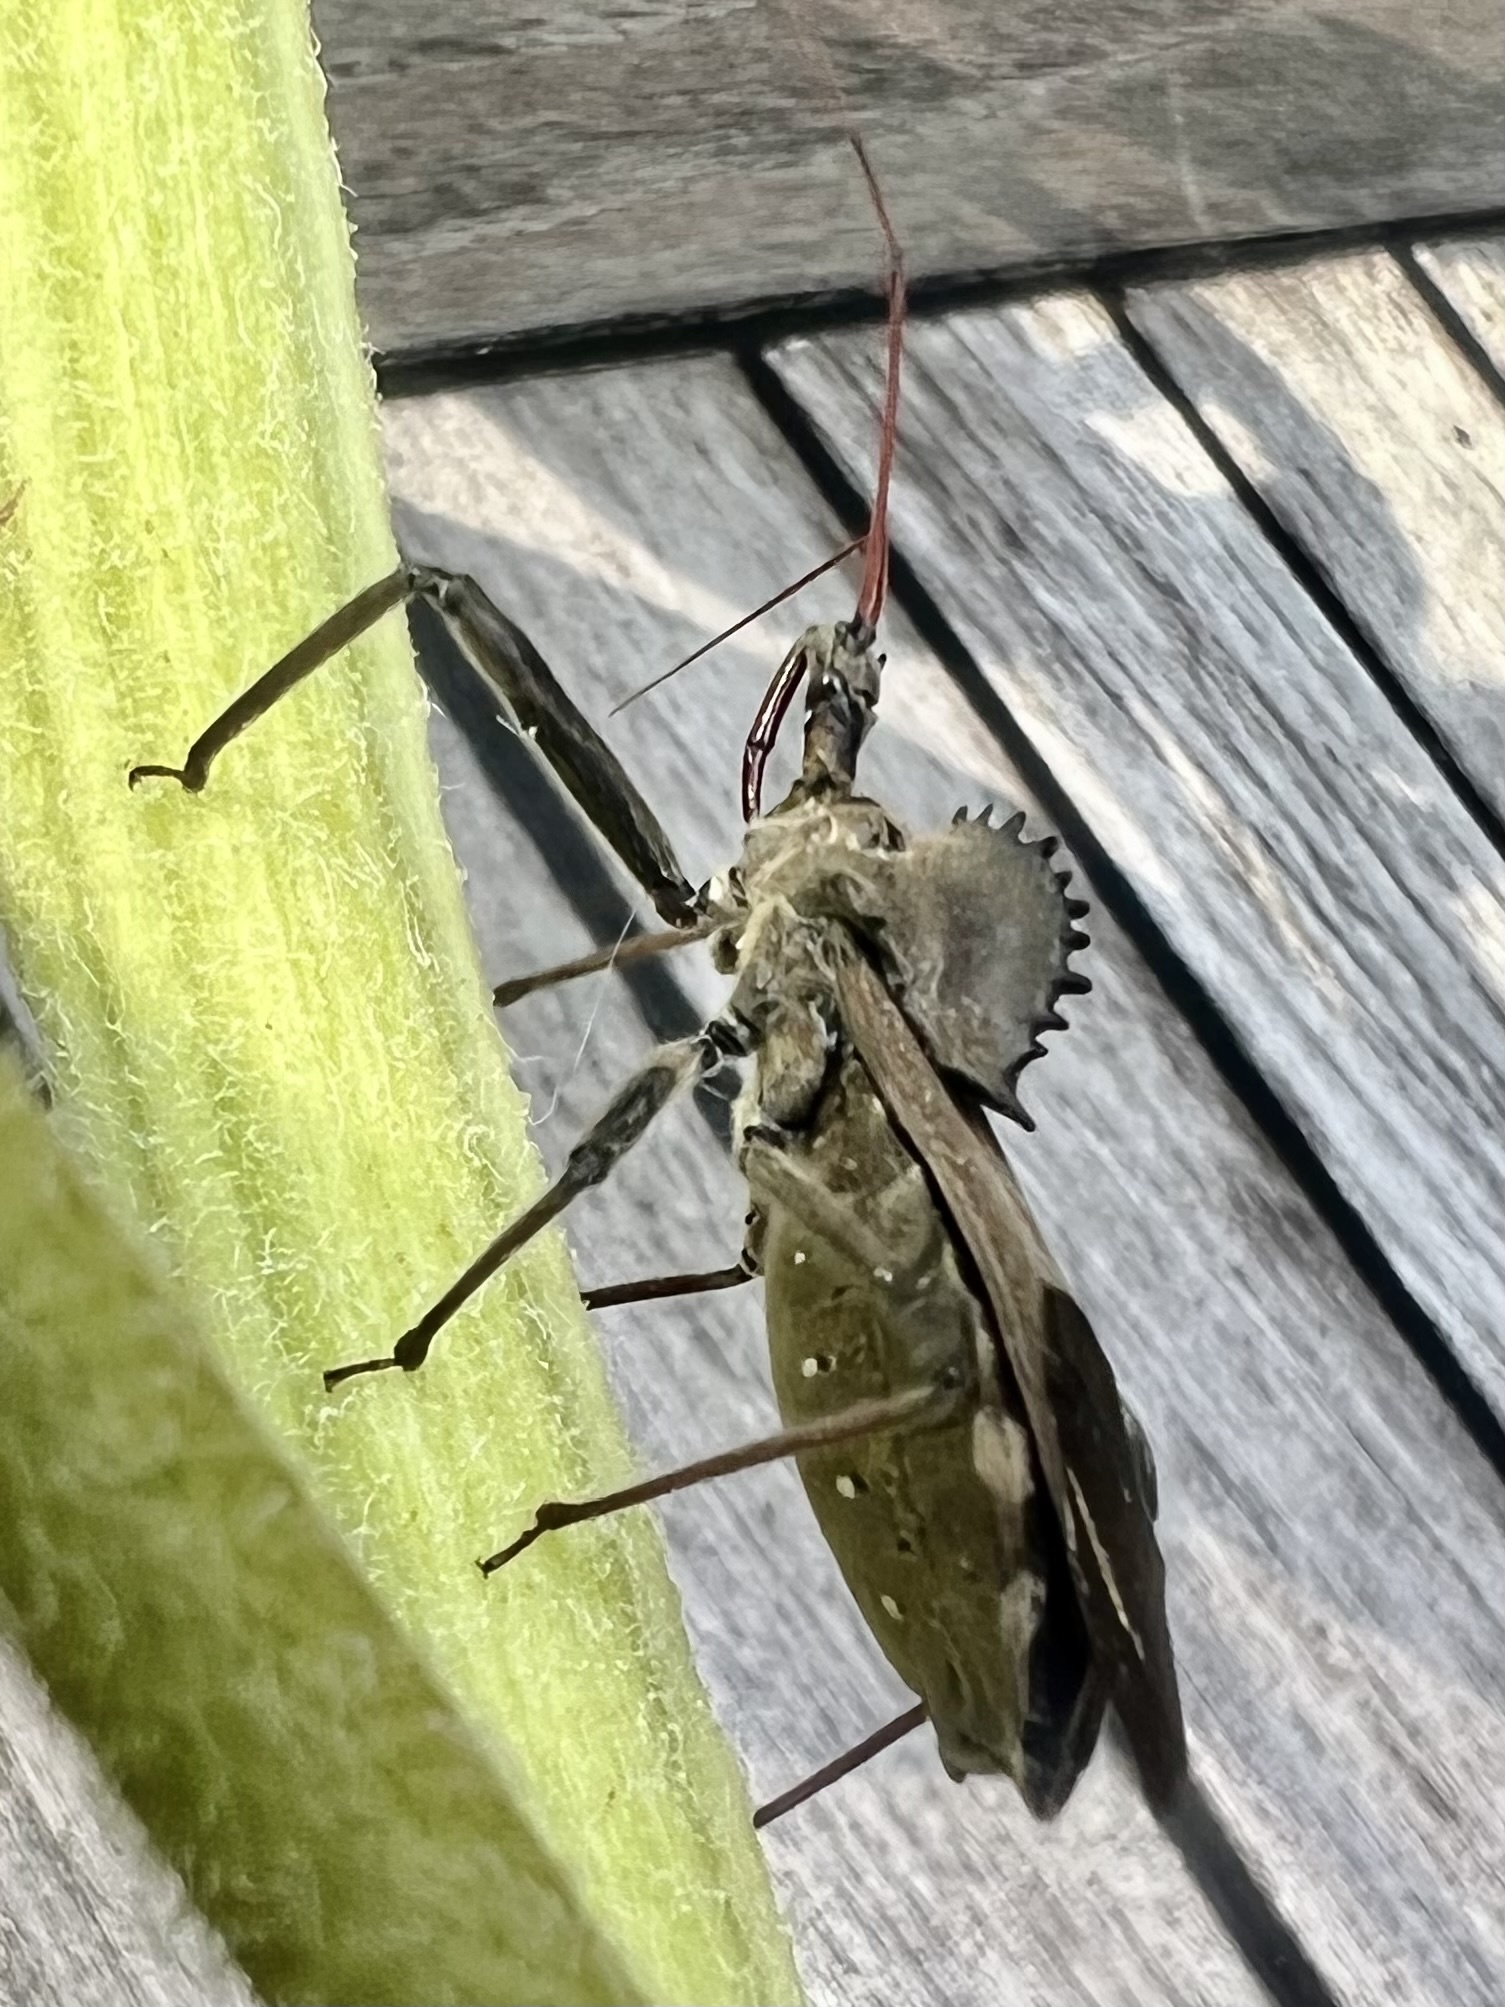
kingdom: Animalia
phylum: Arthropoda
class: Insecta
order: Hemiptera
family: Reduviidae
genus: Arilus
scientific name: Arilus cristatus
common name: North american wheel bug
